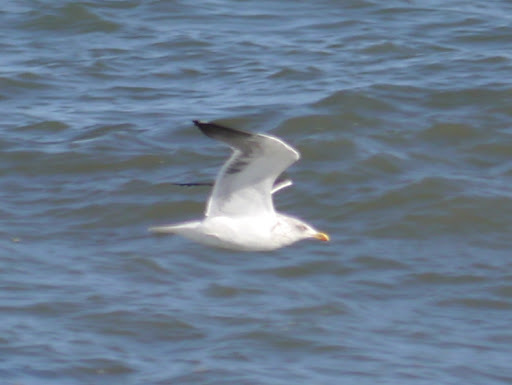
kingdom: Animalia
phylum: Chordata
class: Aves
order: Charadriiformes
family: Laridae
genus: Larus
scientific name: Larus fuscus
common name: Lesser black-backed gull
